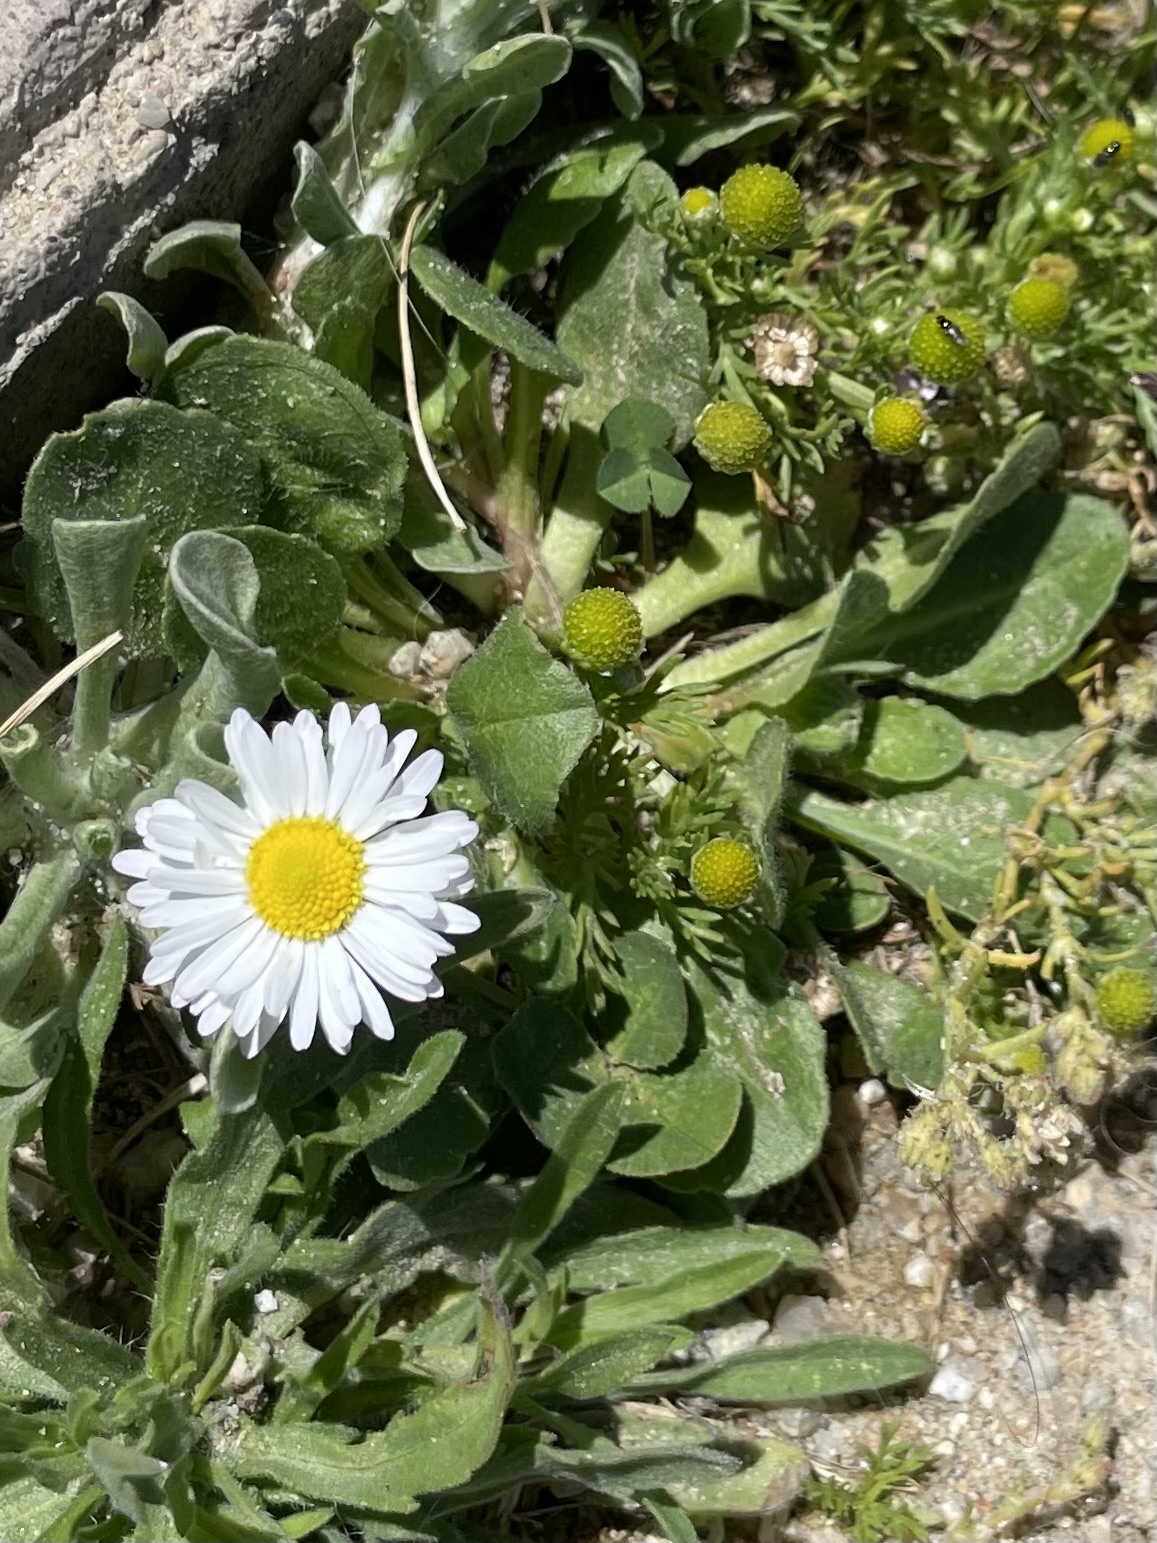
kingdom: Plantae
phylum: Tracheophyta
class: Magnoliopsida
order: Asterales
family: Asteraceae
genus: Bellis
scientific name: Bellis perennis
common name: Lawndaisy
